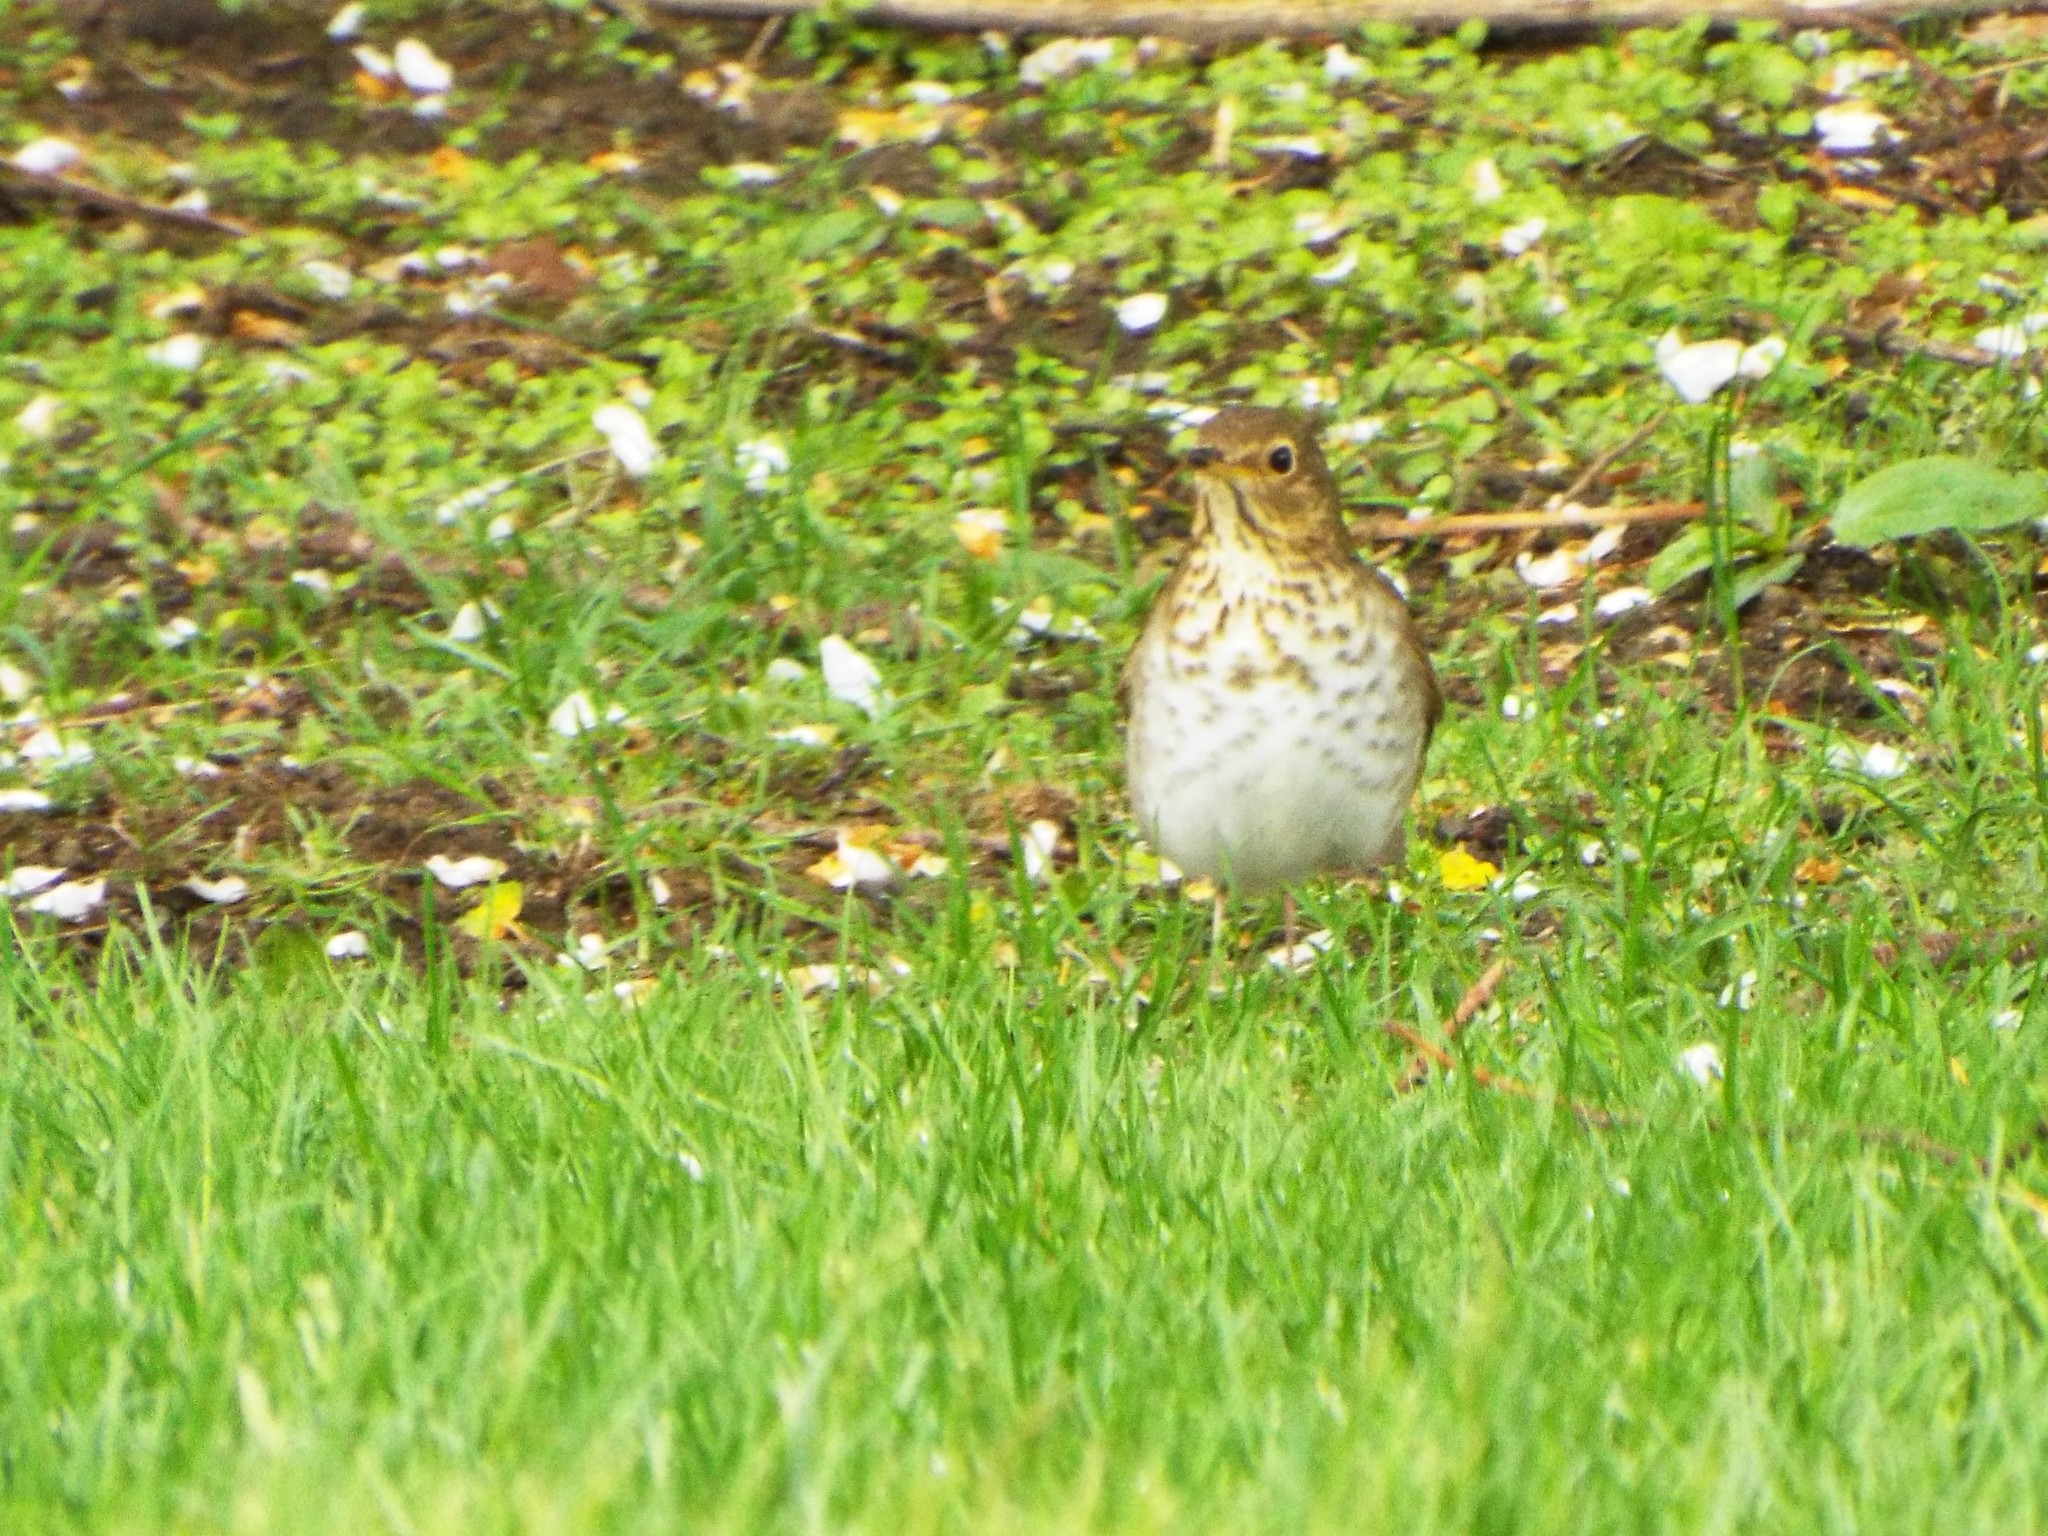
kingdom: Animalia
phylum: Chordata
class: Aves
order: Passeriformes
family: Turdidae
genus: Catharus
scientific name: Catharus ustulatus
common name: Swainson's thrush
